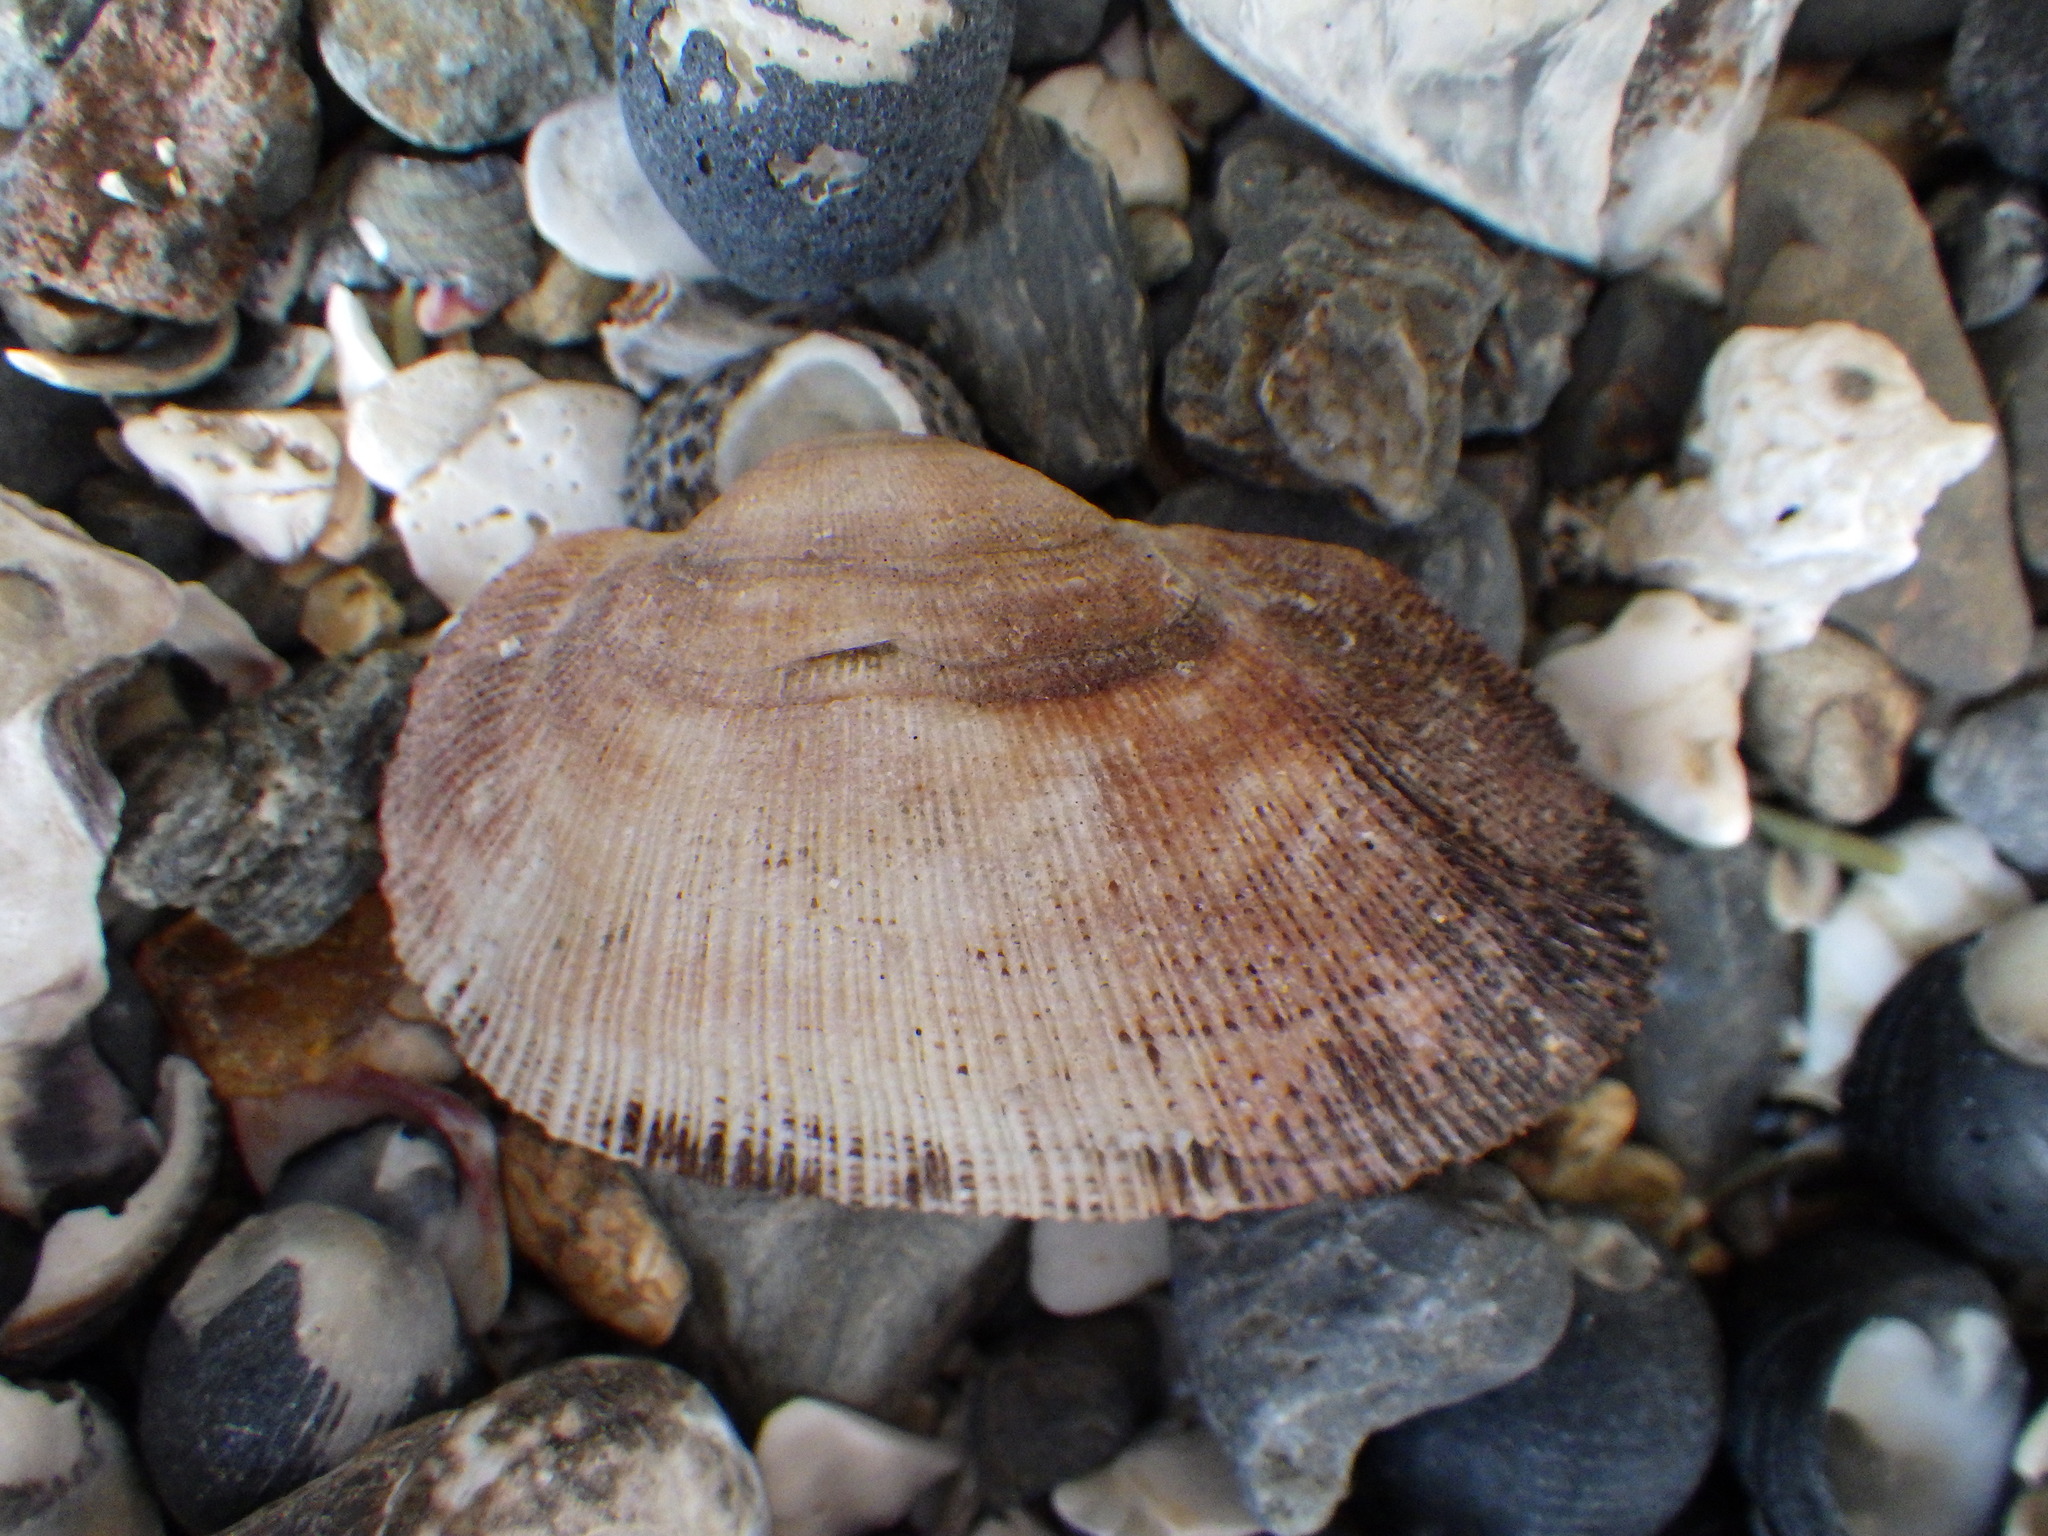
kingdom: Animalia
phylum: Mollusca
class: Bivalvia
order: Arcida
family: Arcidae
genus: Barbatia
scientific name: Barbatia novaezealandiae
